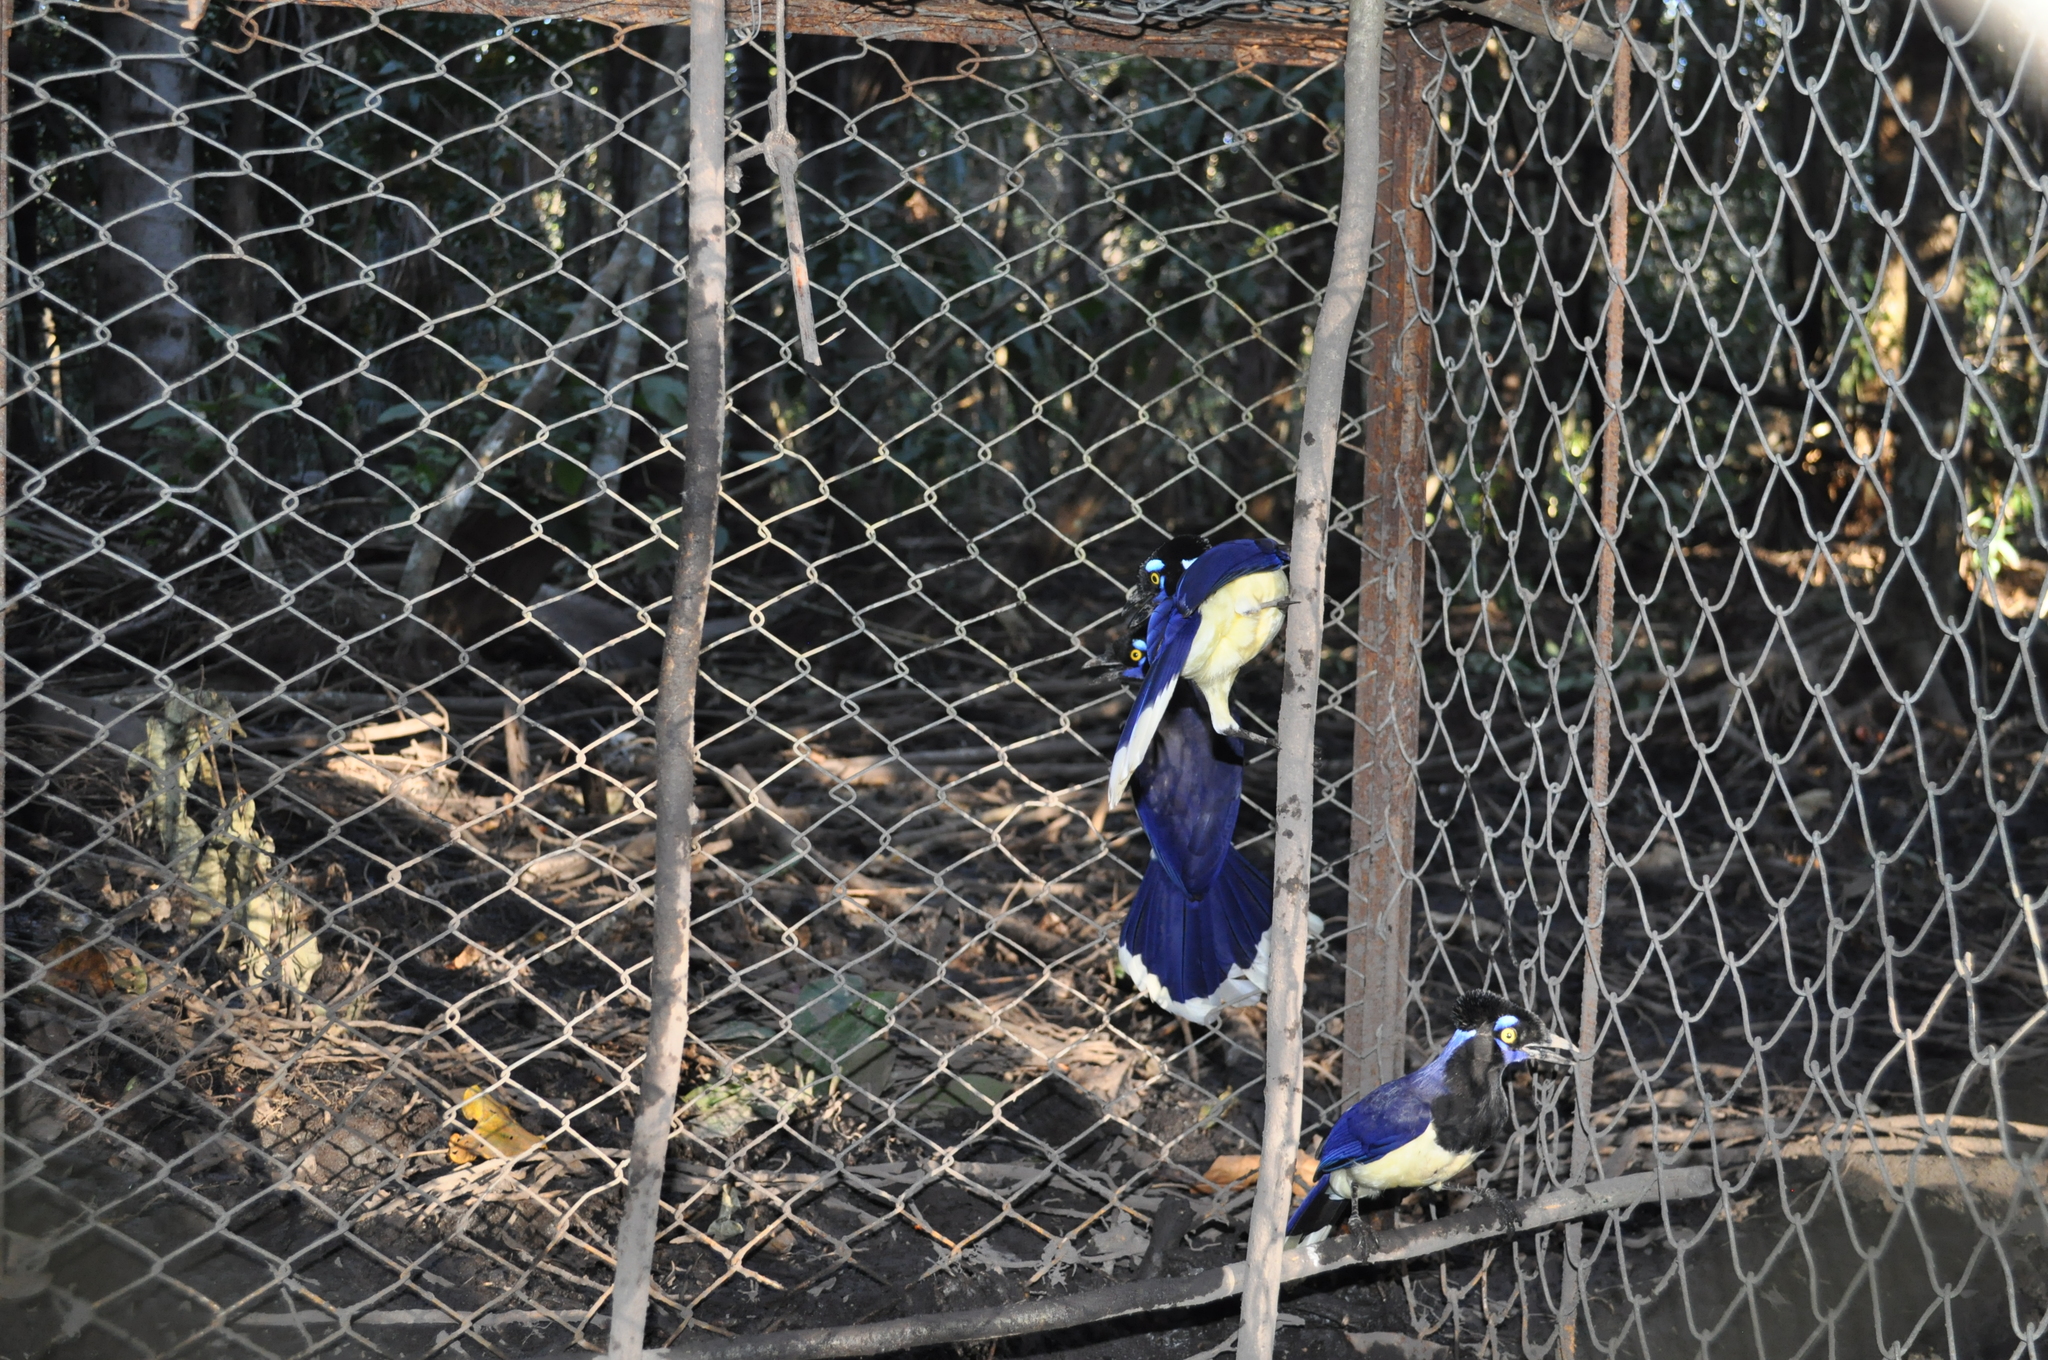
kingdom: Animalia
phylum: Chordata
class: Aves
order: Passeriformes
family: Corvidae
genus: Cyanocorax
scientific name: Cyanocorax chrysops
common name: Plush-crested jay
